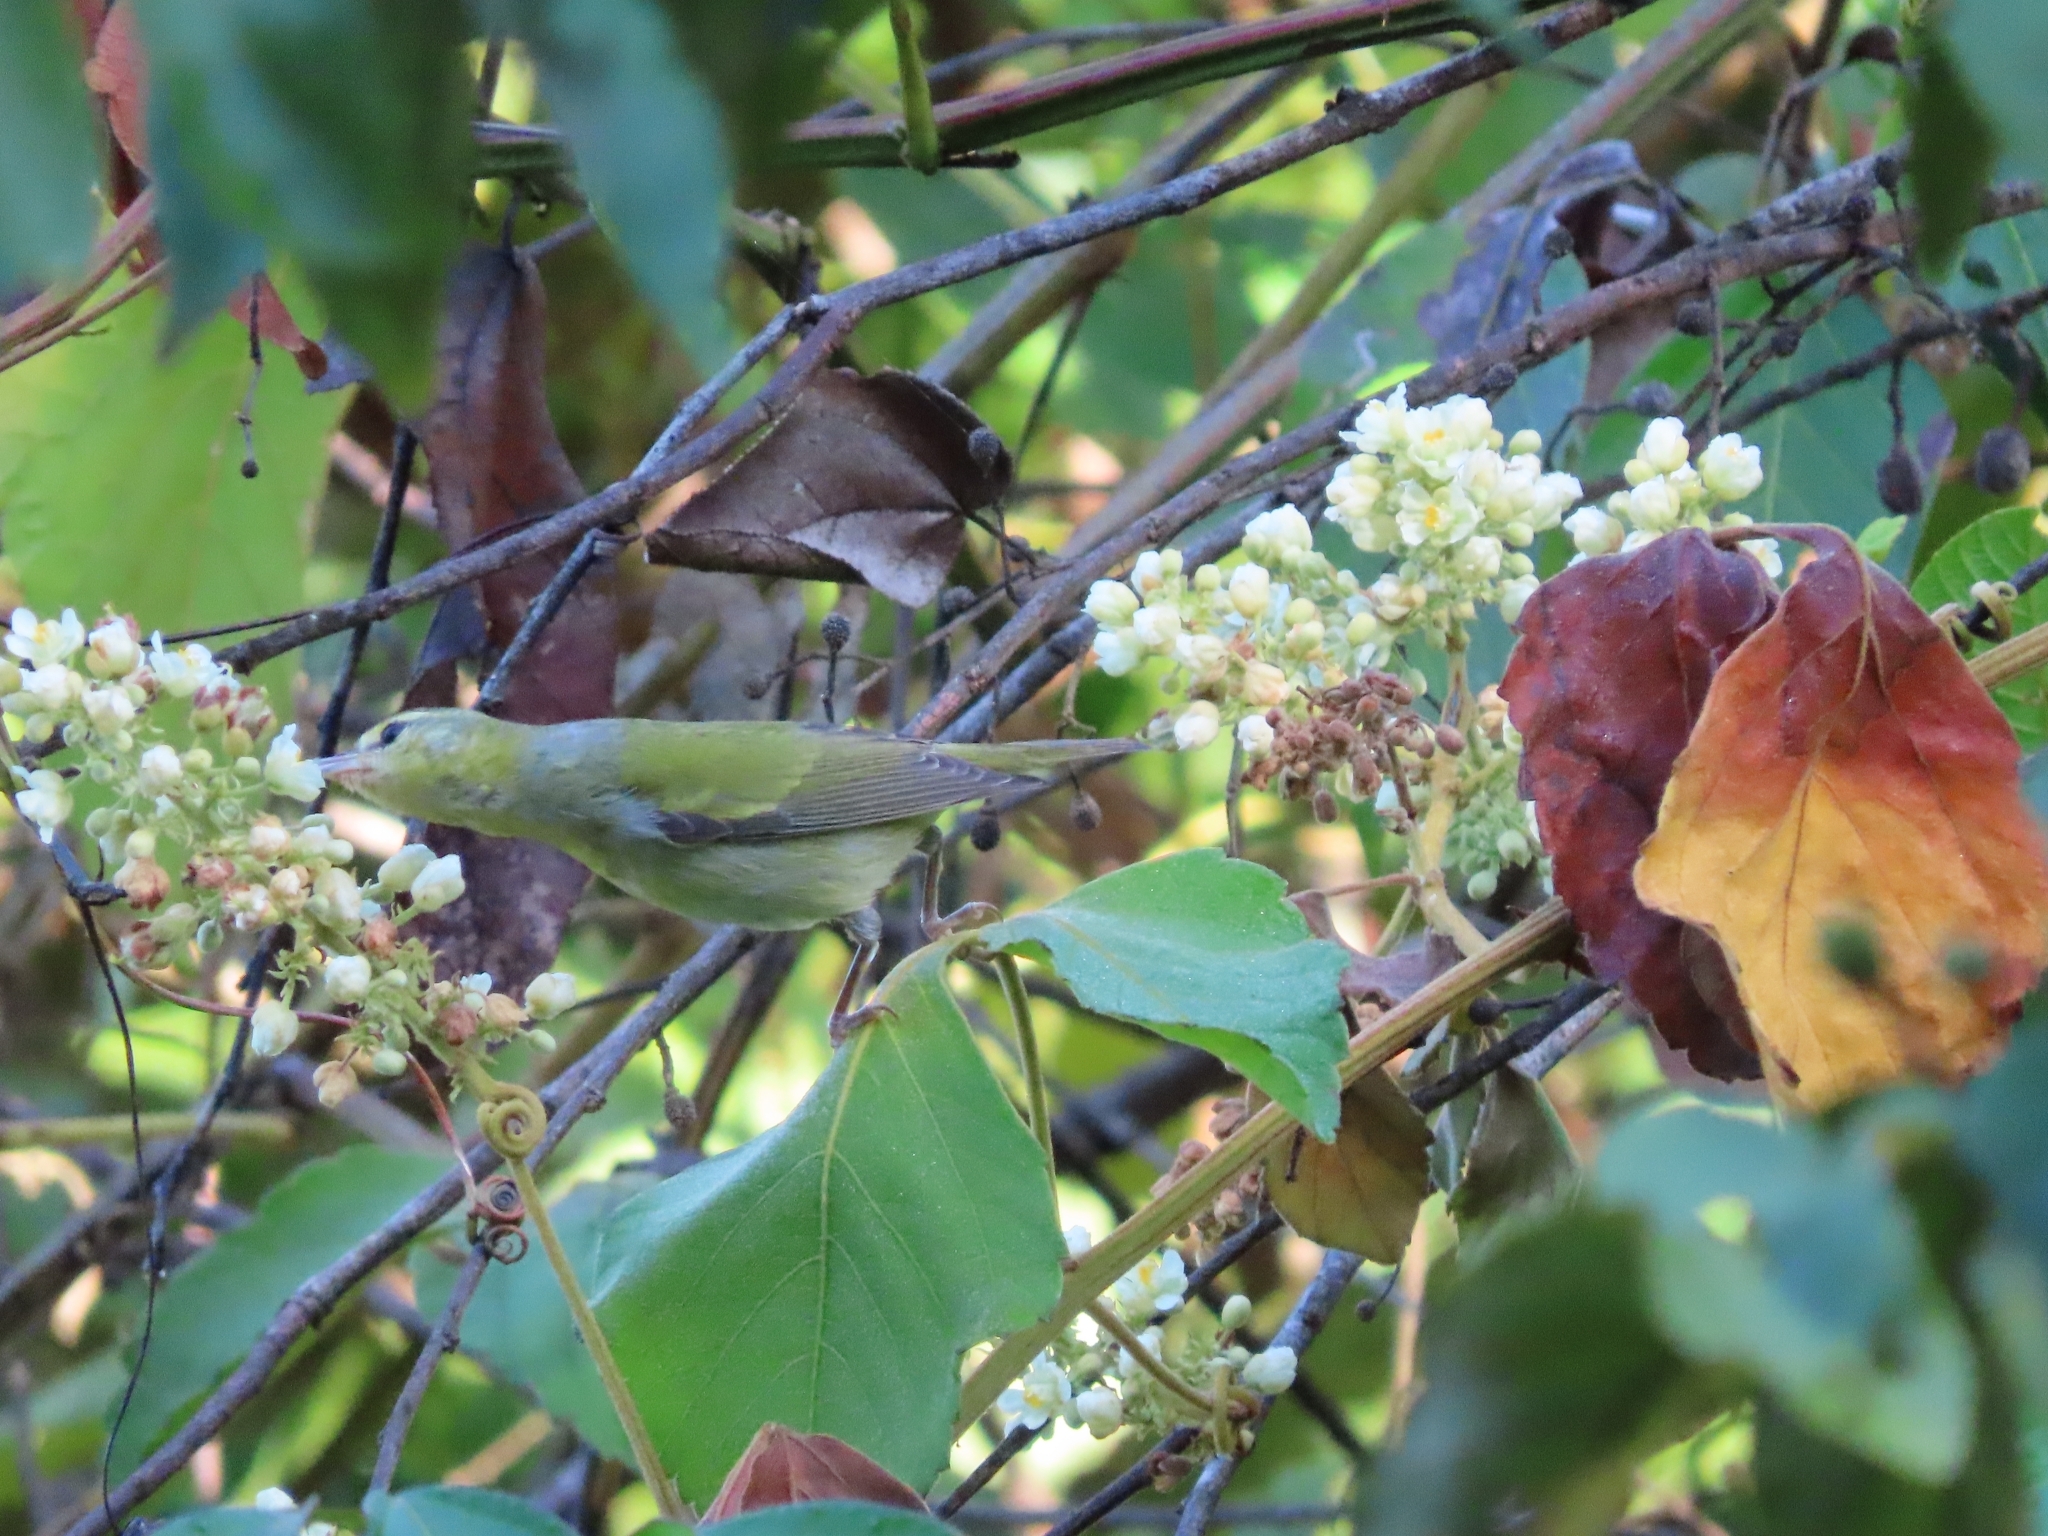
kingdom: Animalia
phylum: Chordata
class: Aves
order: Passeriformes
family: Parulidae
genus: Leiothlypis
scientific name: Leiothlypis peregrina
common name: Tennessee warbler
